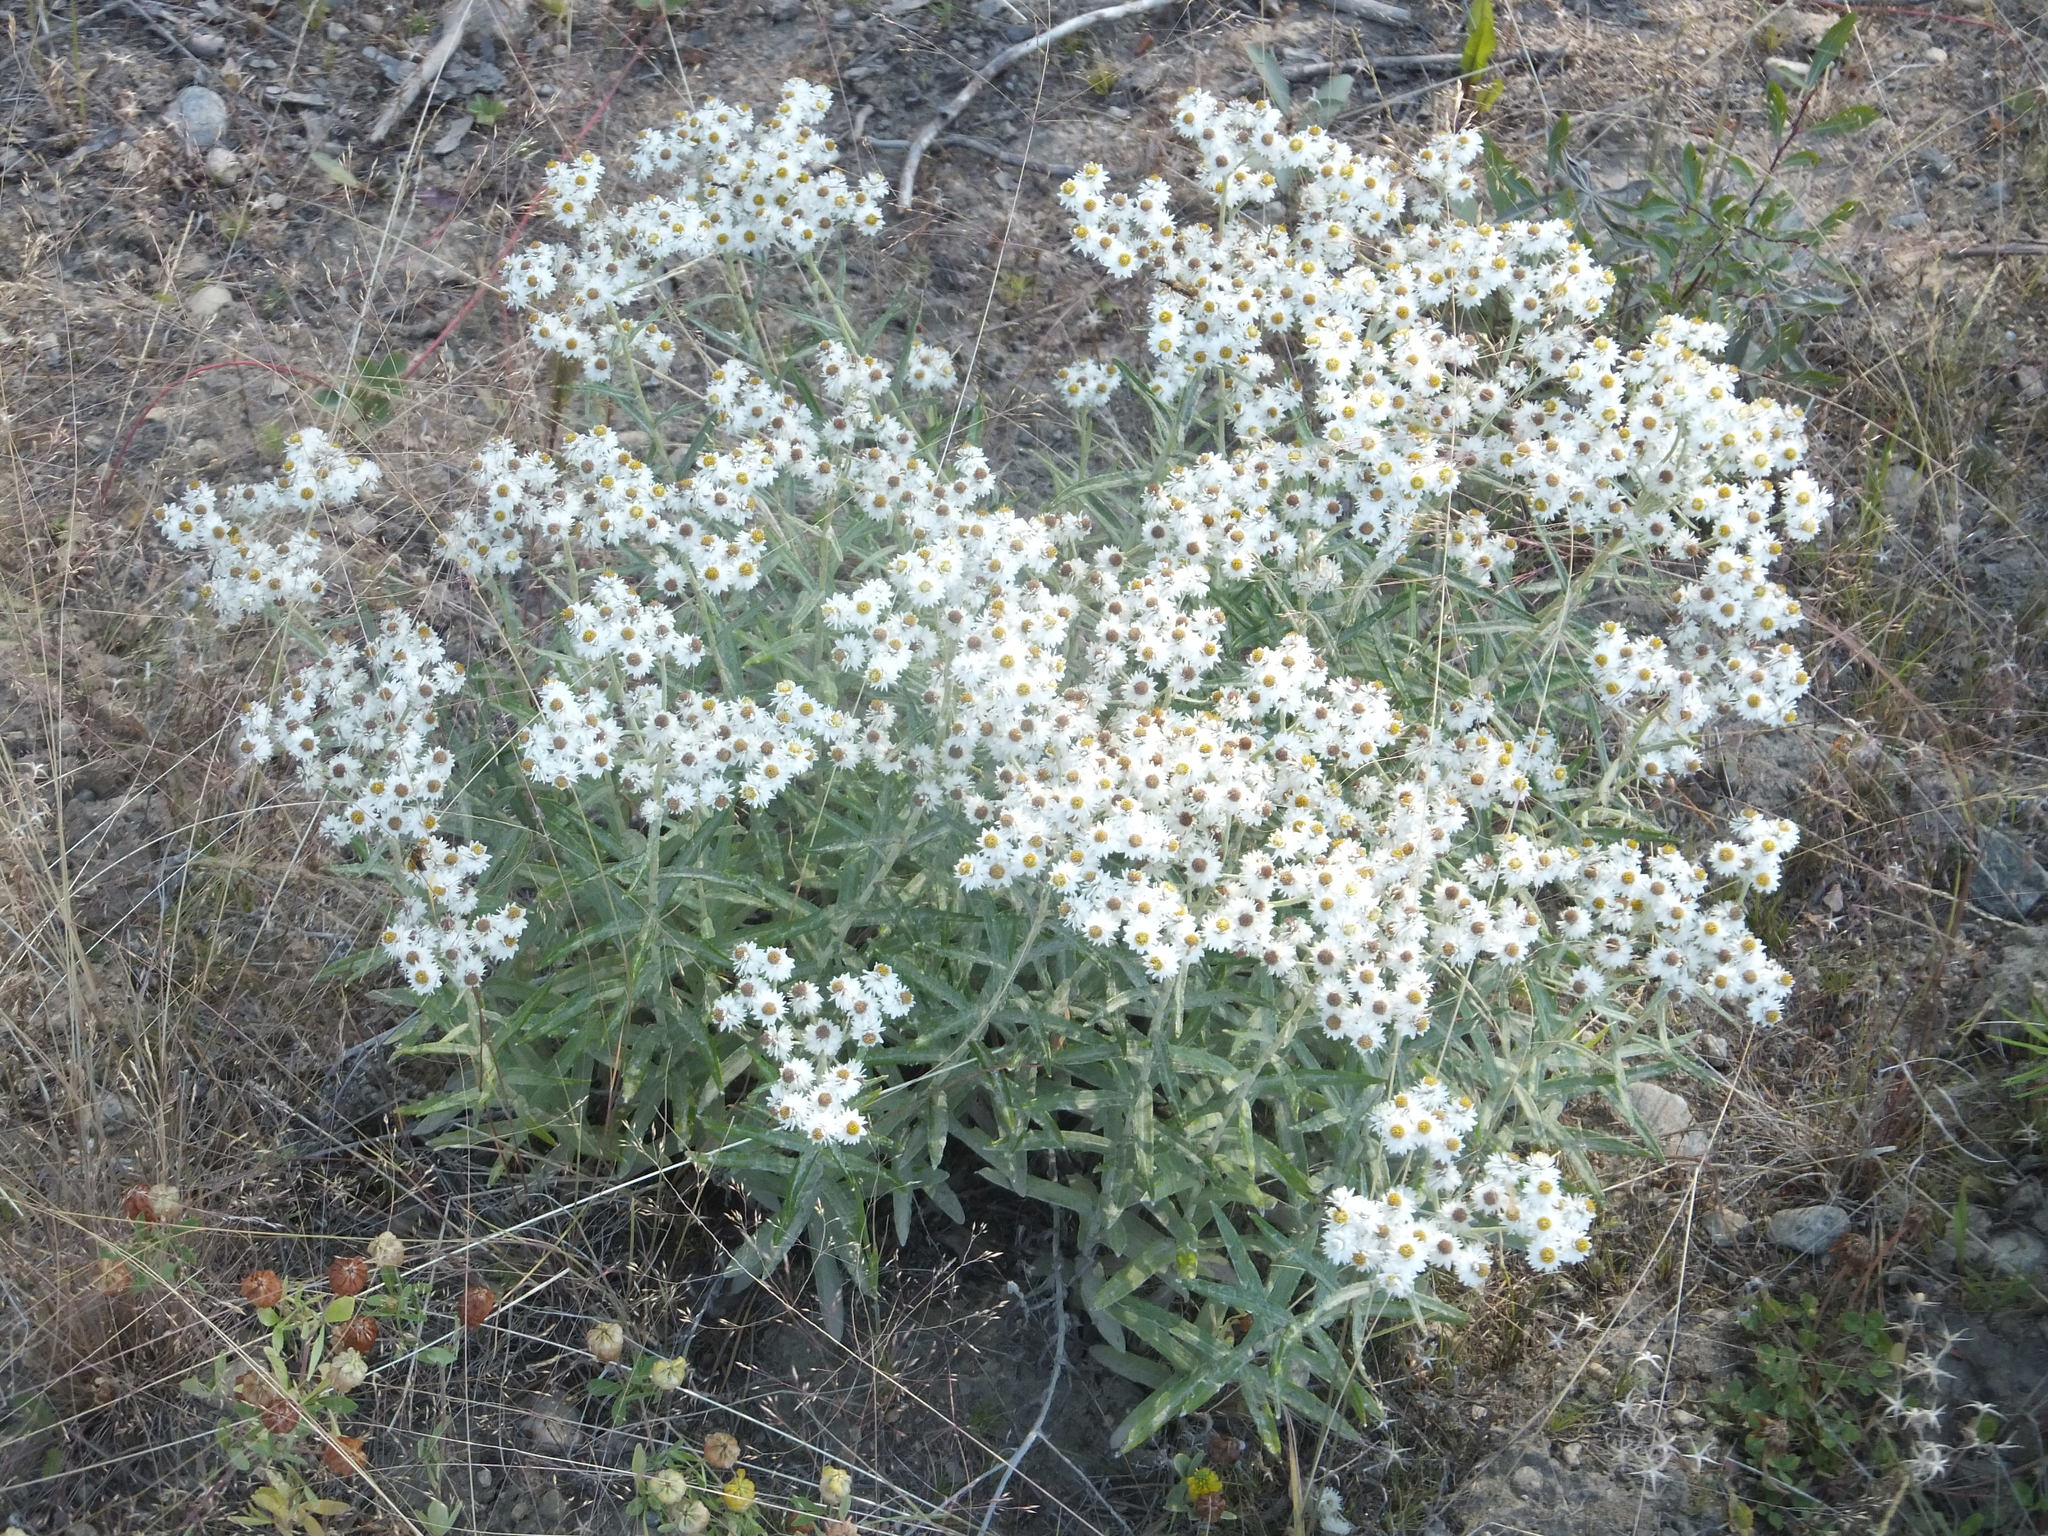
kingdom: Plantae
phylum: Tracheophyta
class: Magnoliopsida
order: Asterales
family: Asteraceae
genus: Anaphalis
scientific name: Anaphalis margaritacea
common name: Pearly everlasting
